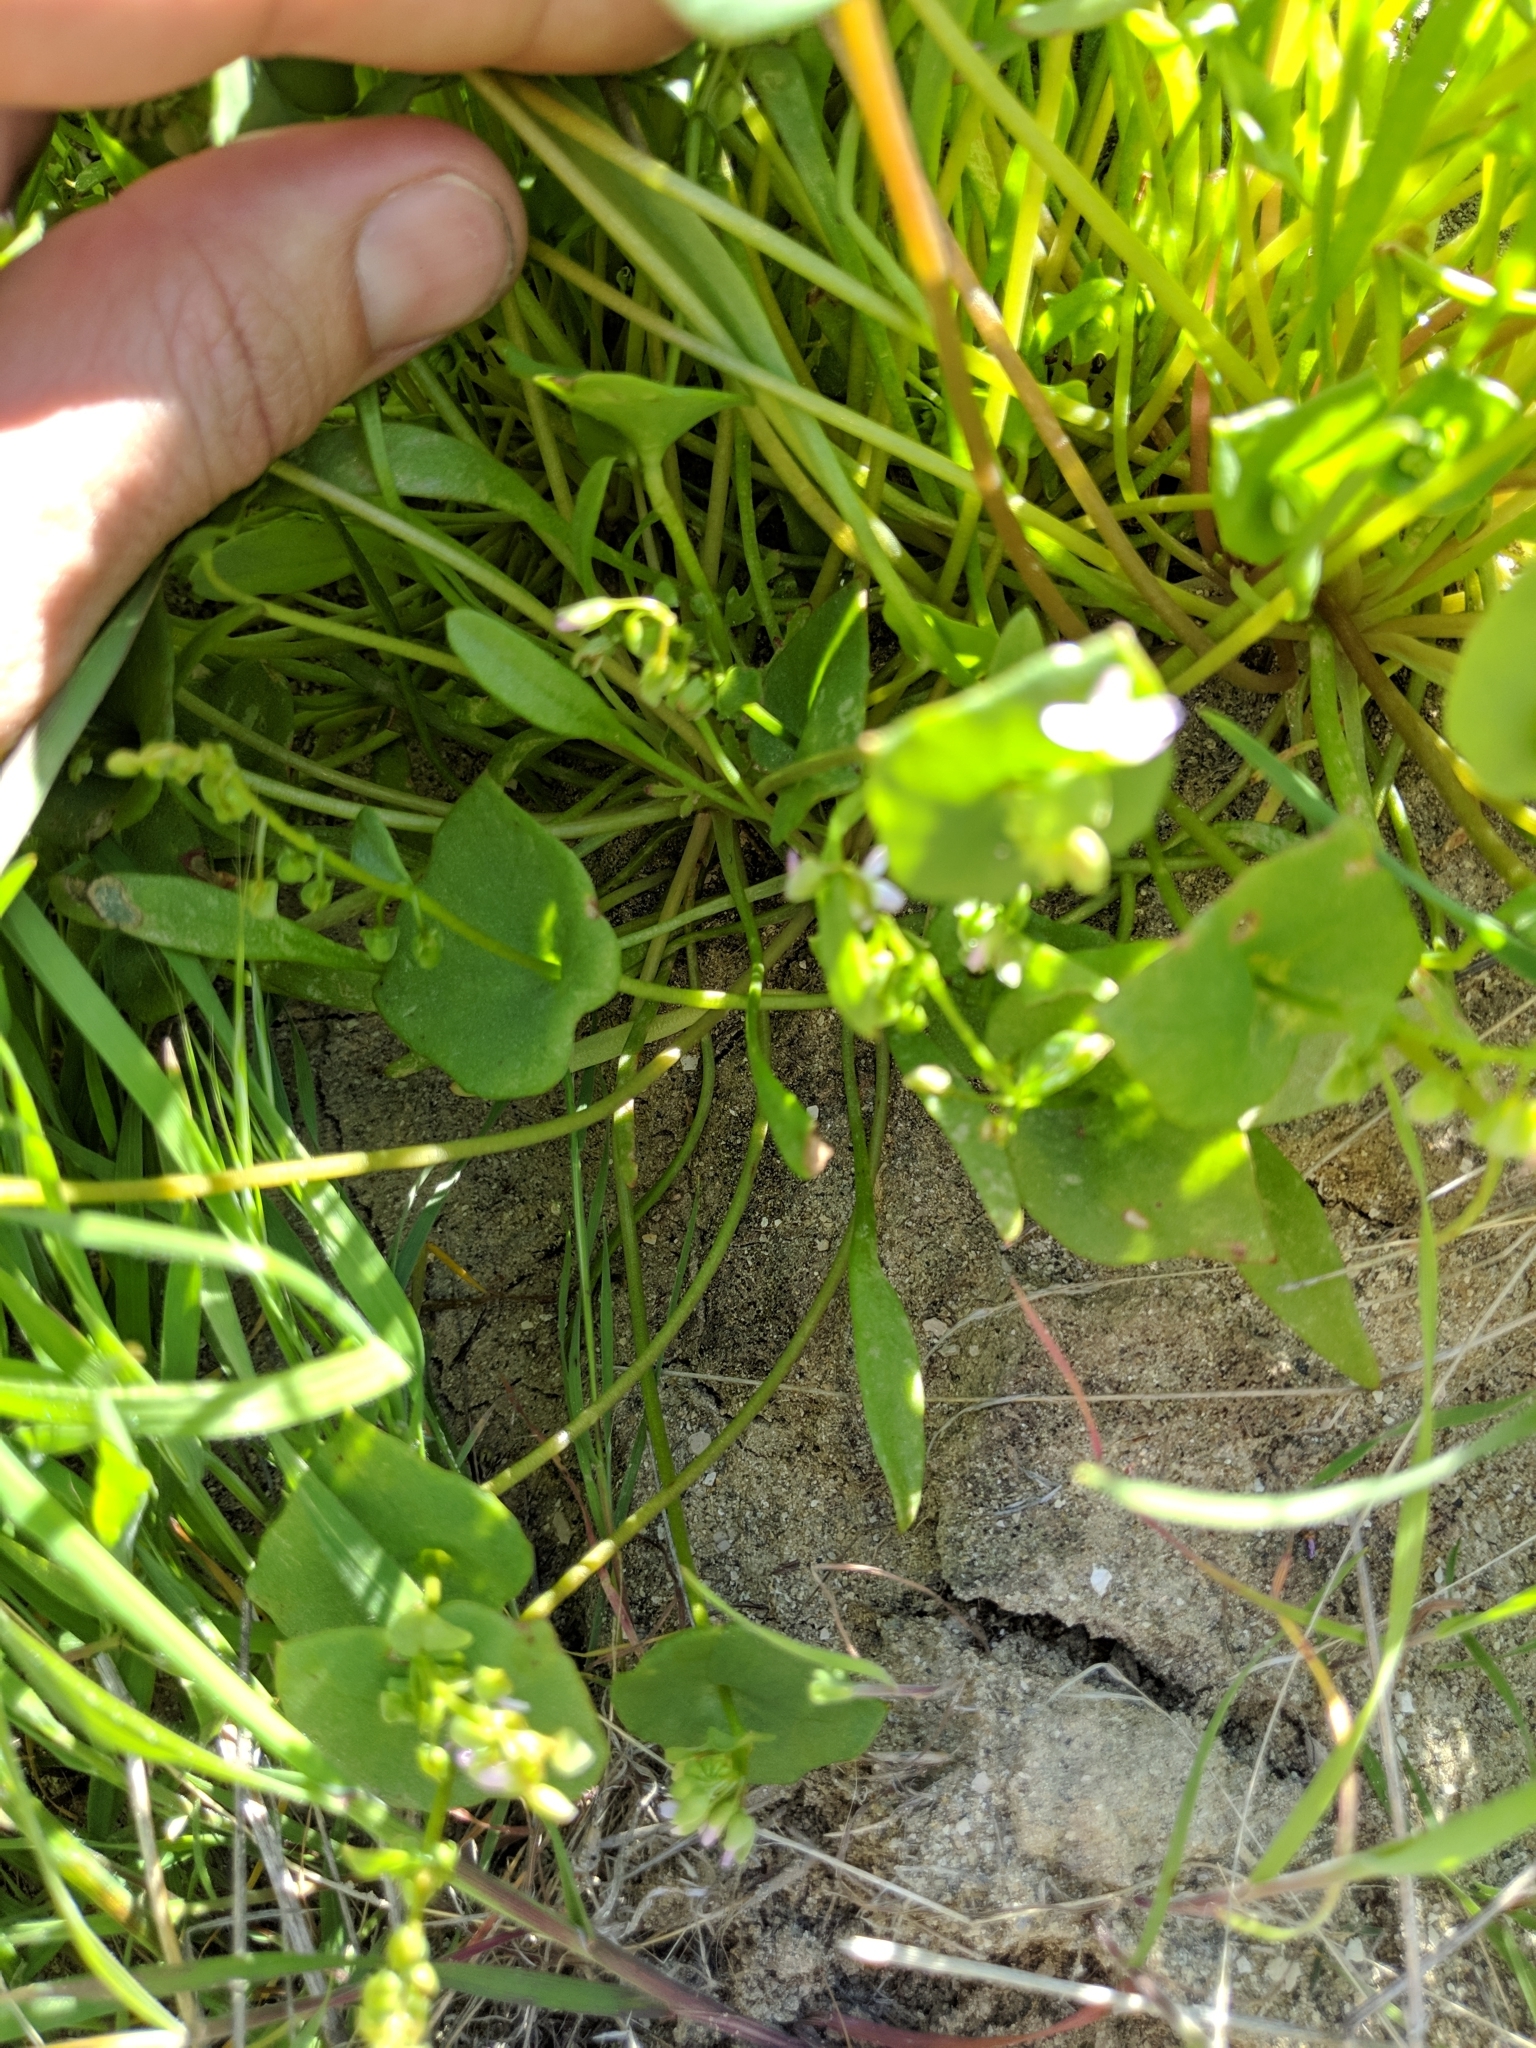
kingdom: Plantae
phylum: Tracheophyta
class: Magnoliopsida
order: Caryophyllales
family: Montiaceae
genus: Claytonia
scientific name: Claytonia parviflora
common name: Indian-lettuce
